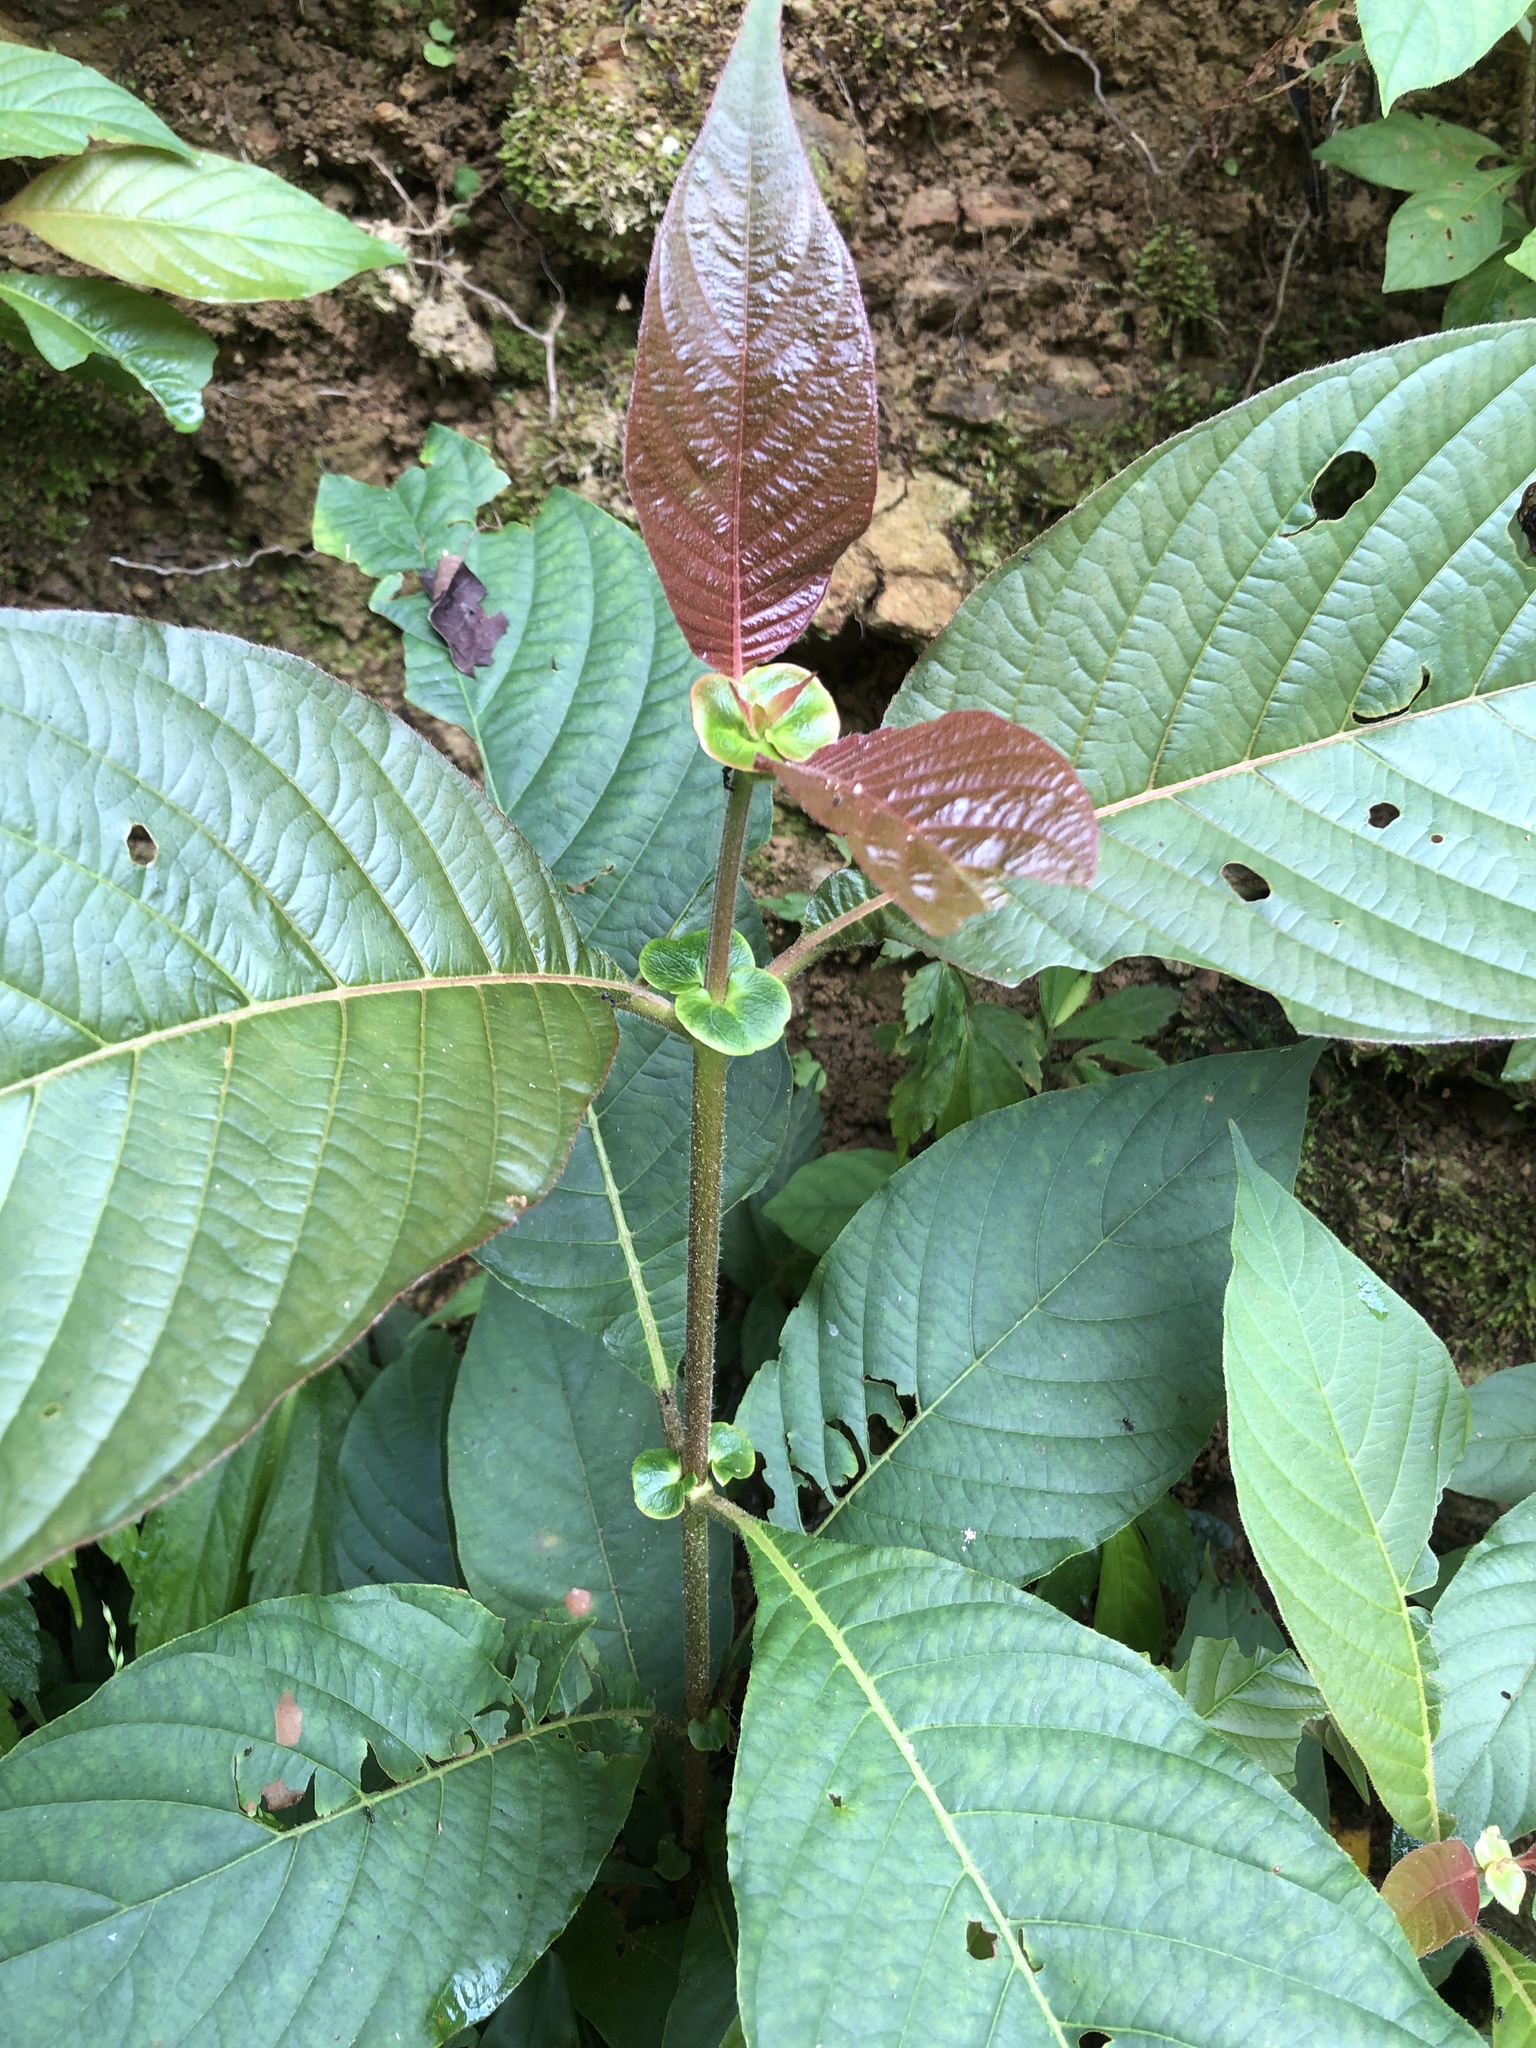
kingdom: Plantae
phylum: Tracheophyta
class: Magnoliopsida
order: Gentianales
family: Rubiaceae
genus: Wendlandia
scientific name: Wendlandia uvariifolia
